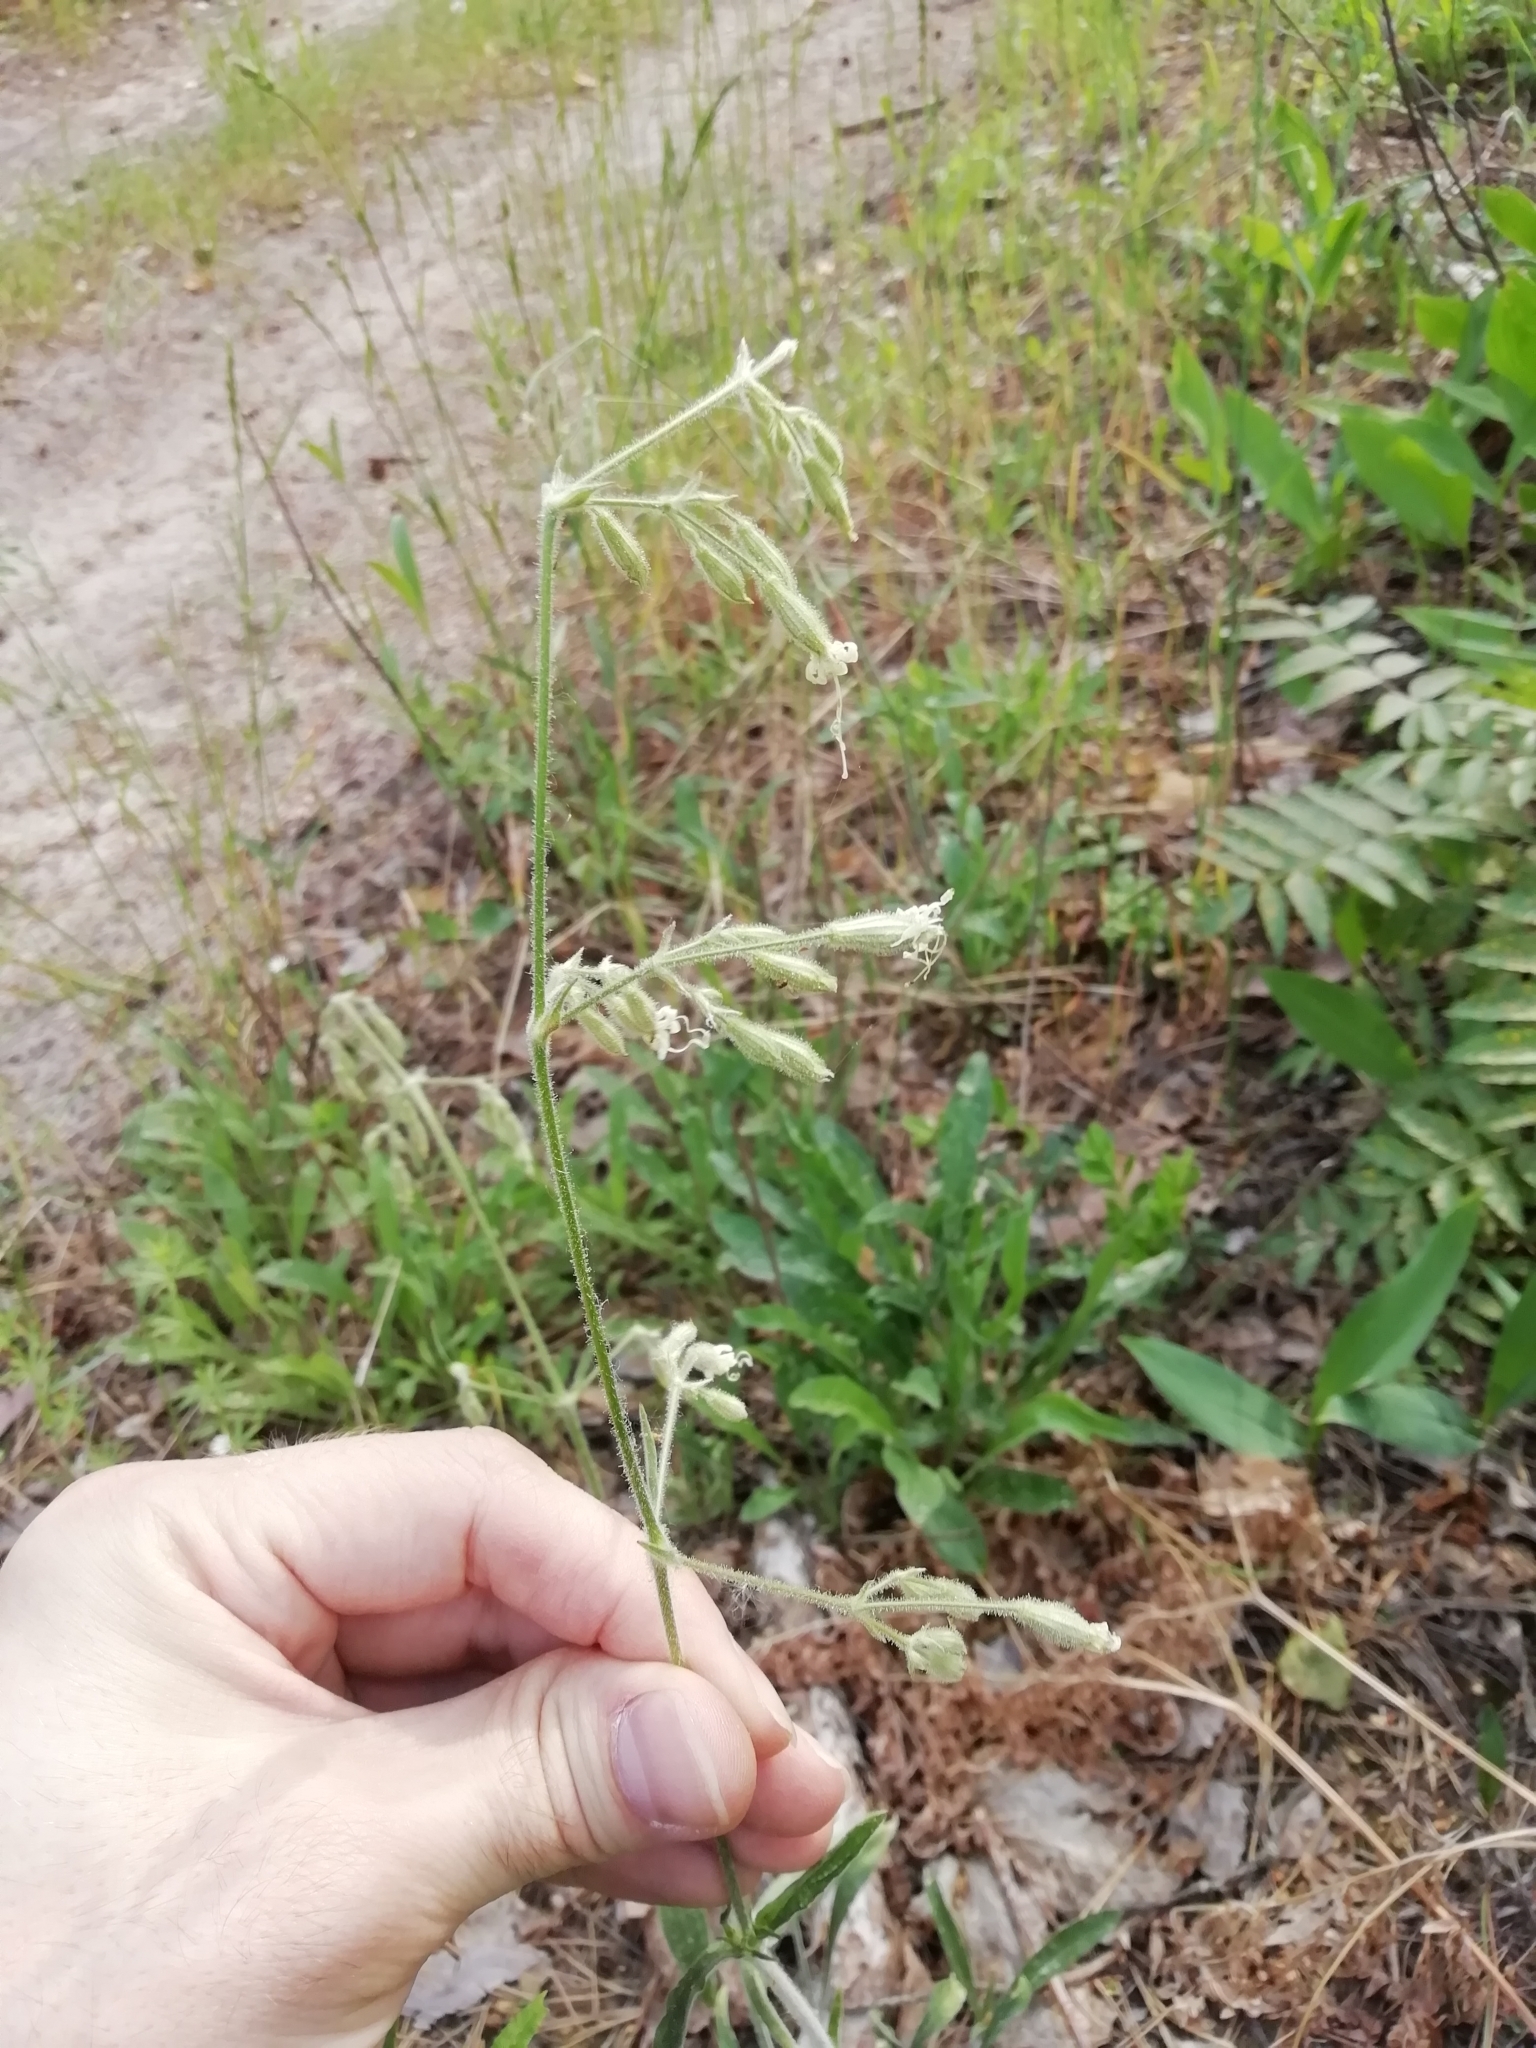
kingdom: Plantae
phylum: Tracheophyta
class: Magnoliopsida
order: Caryophyllales
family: Caryophyllaceae
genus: Silene
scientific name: Silene nutans
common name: Nottingham catchfly
